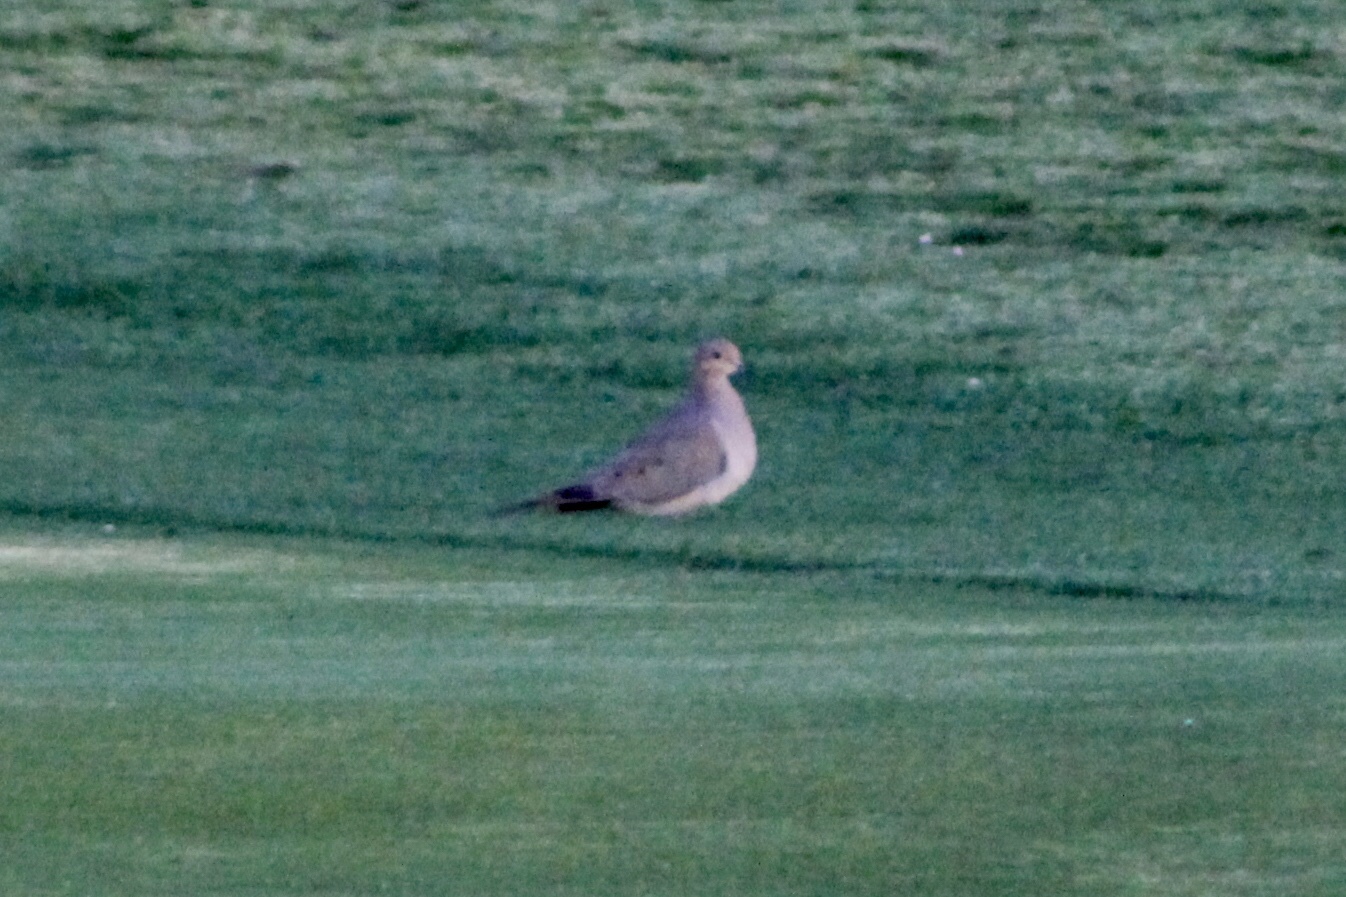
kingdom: Animalia
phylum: Chordata
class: Aves
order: Columbiformes
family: Columbidae
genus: Zenaida
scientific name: Zenaida macroura
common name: Mourning dove
